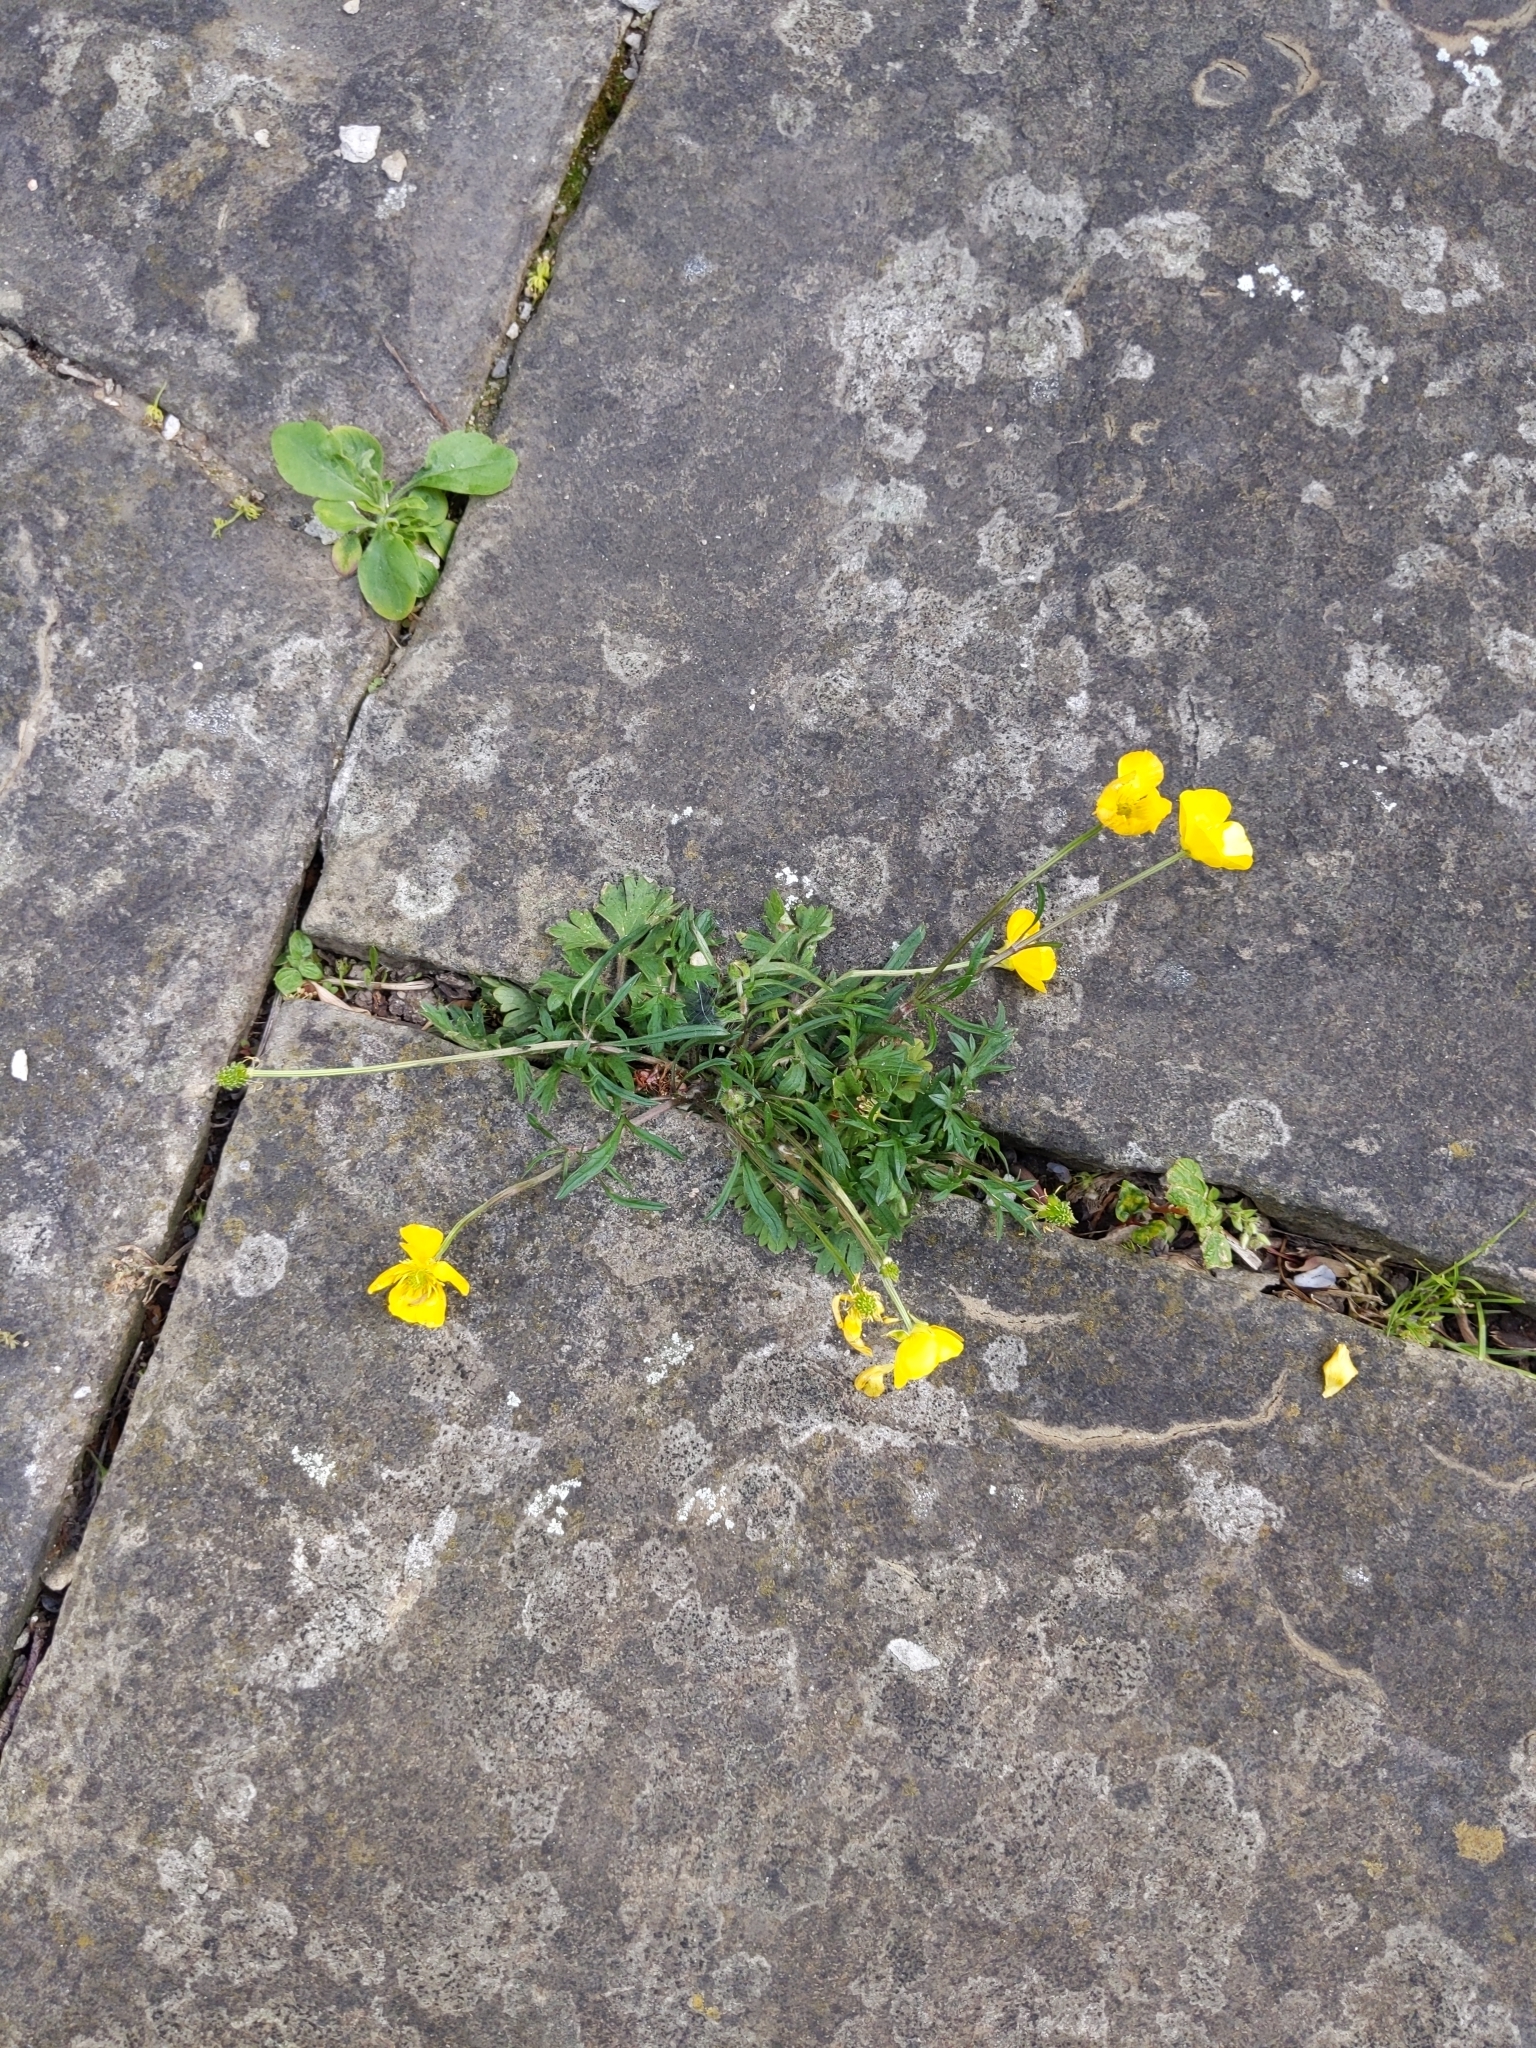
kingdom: Plantae
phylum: Tracheophyta
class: Magnoliopsida
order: Ranunculales
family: Ranunculaceae
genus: Ranunculus
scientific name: Ranunculus bulbosus
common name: Bulbous buttercup
